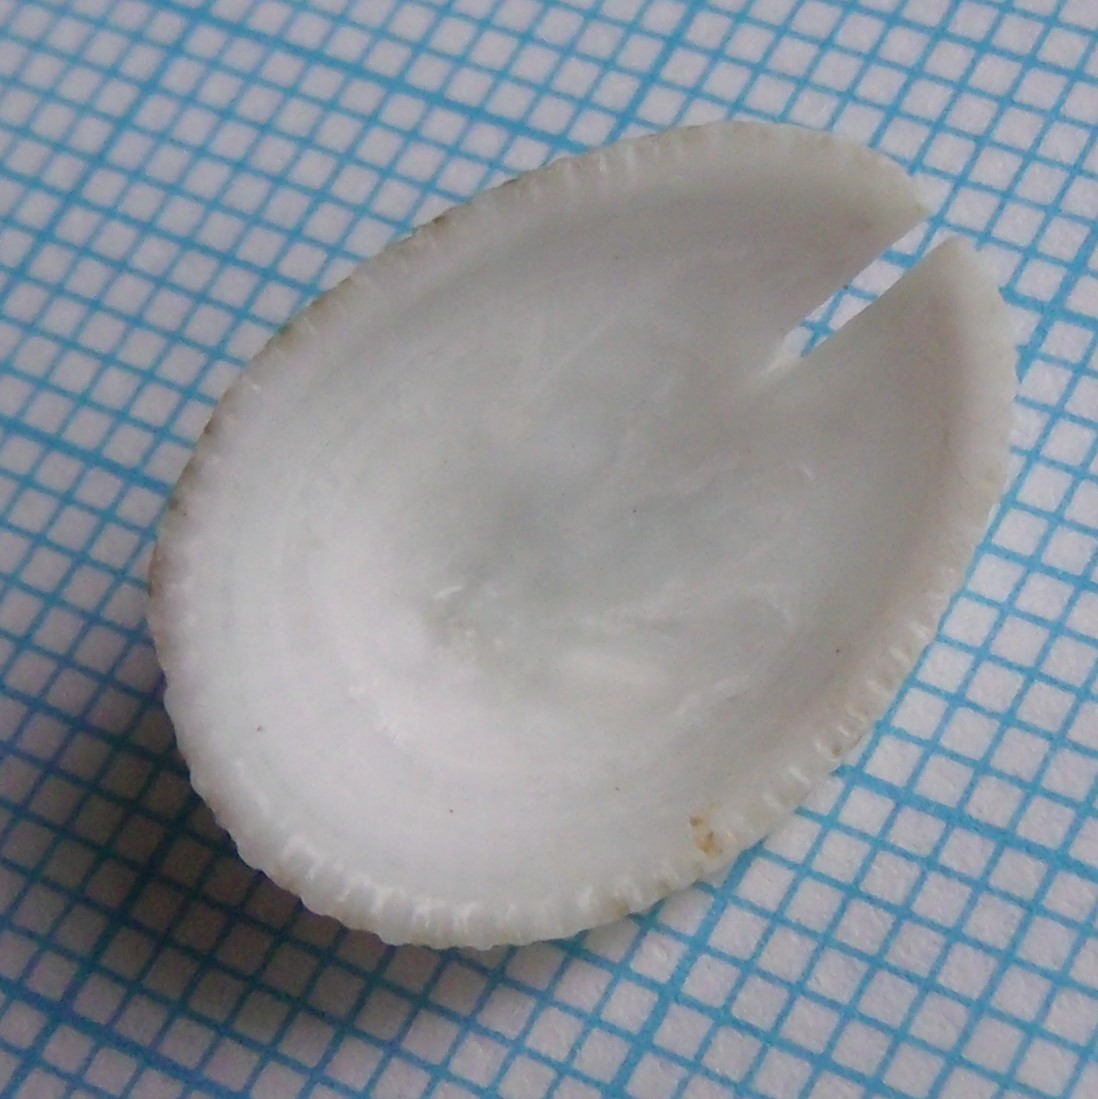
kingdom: Animalia
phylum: Mollusca
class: Gastropoda
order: Lepetellida
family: Fissurellidae
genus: Emarginula
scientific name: Emarginula striatula
